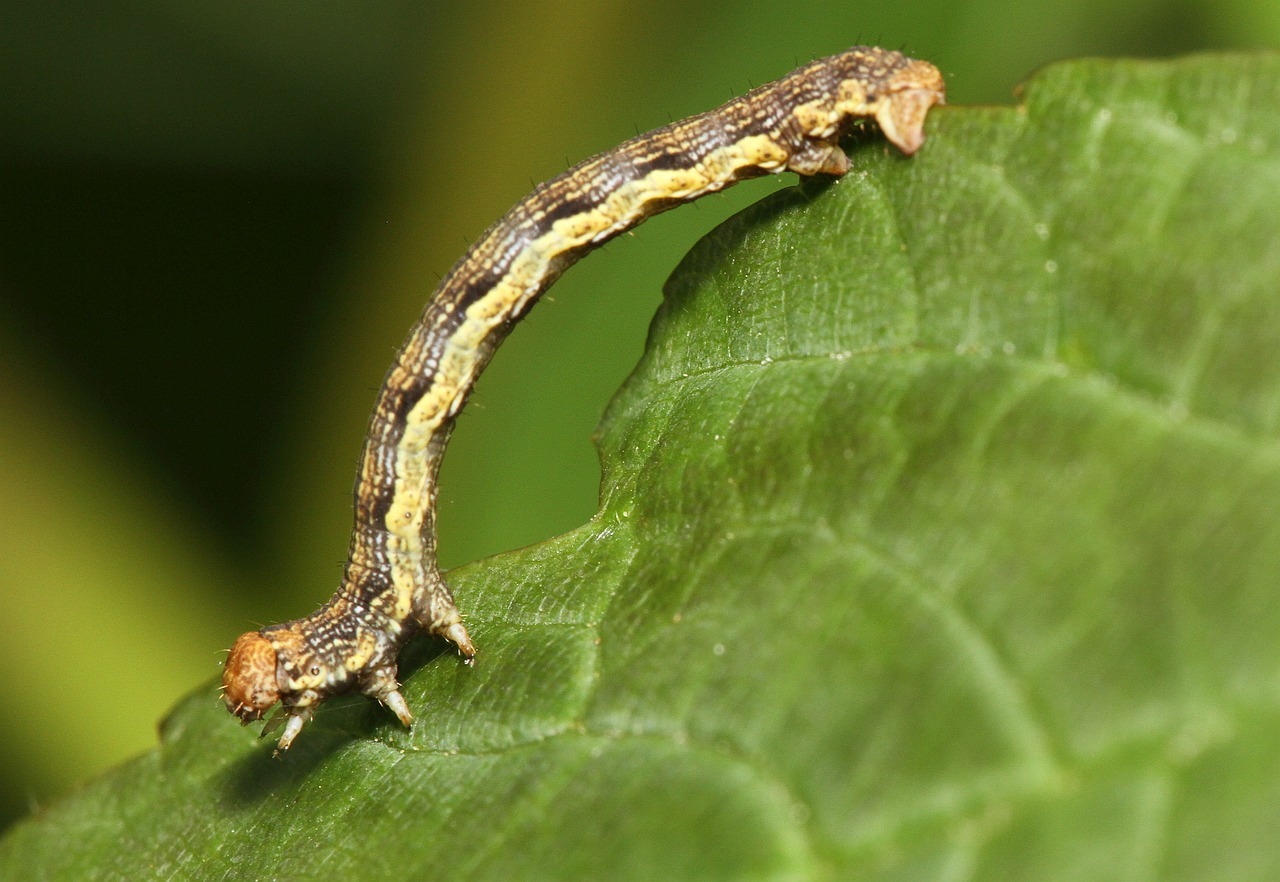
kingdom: Animalia
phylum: Arthropoda
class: Insecta
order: Lepidoptera
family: Geometridae
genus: Erannis
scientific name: Erannis defoliaria
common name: Mottled umber
